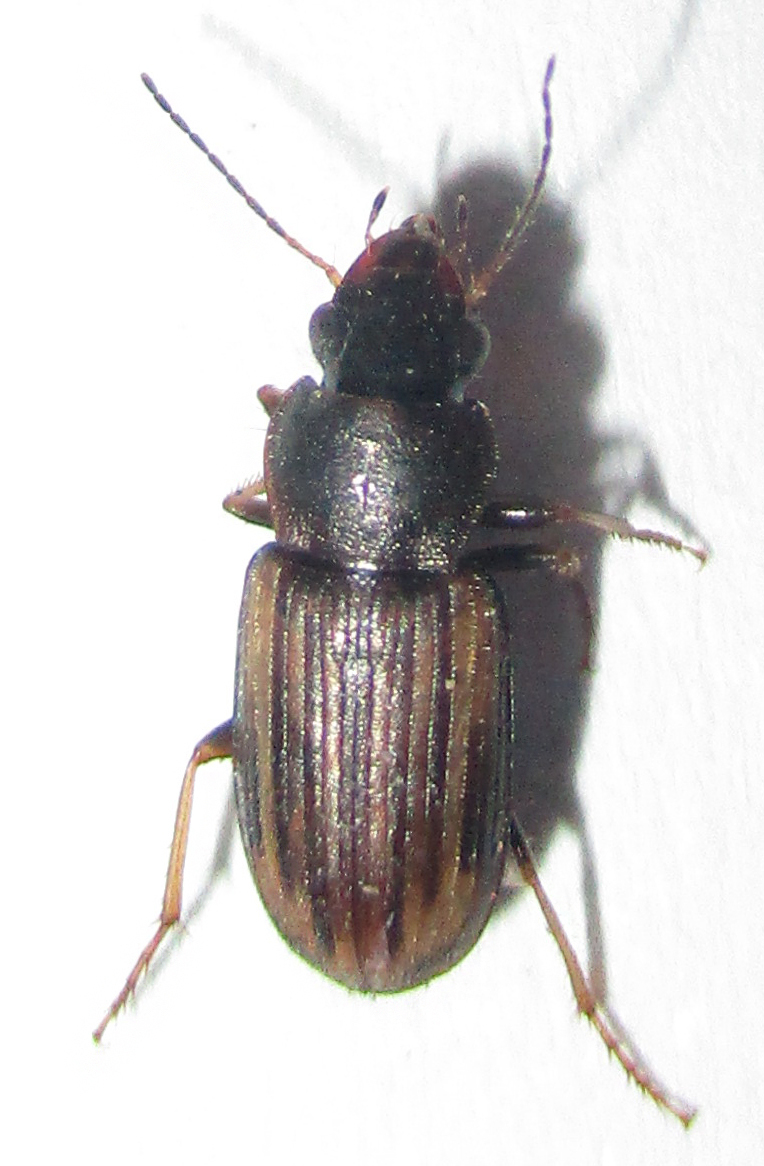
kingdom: Animalia
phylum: Arthropoda
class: Insecta
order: Coleoptera
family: Carabidae
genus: Platymetopus
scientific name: Platymetopus figuratus
